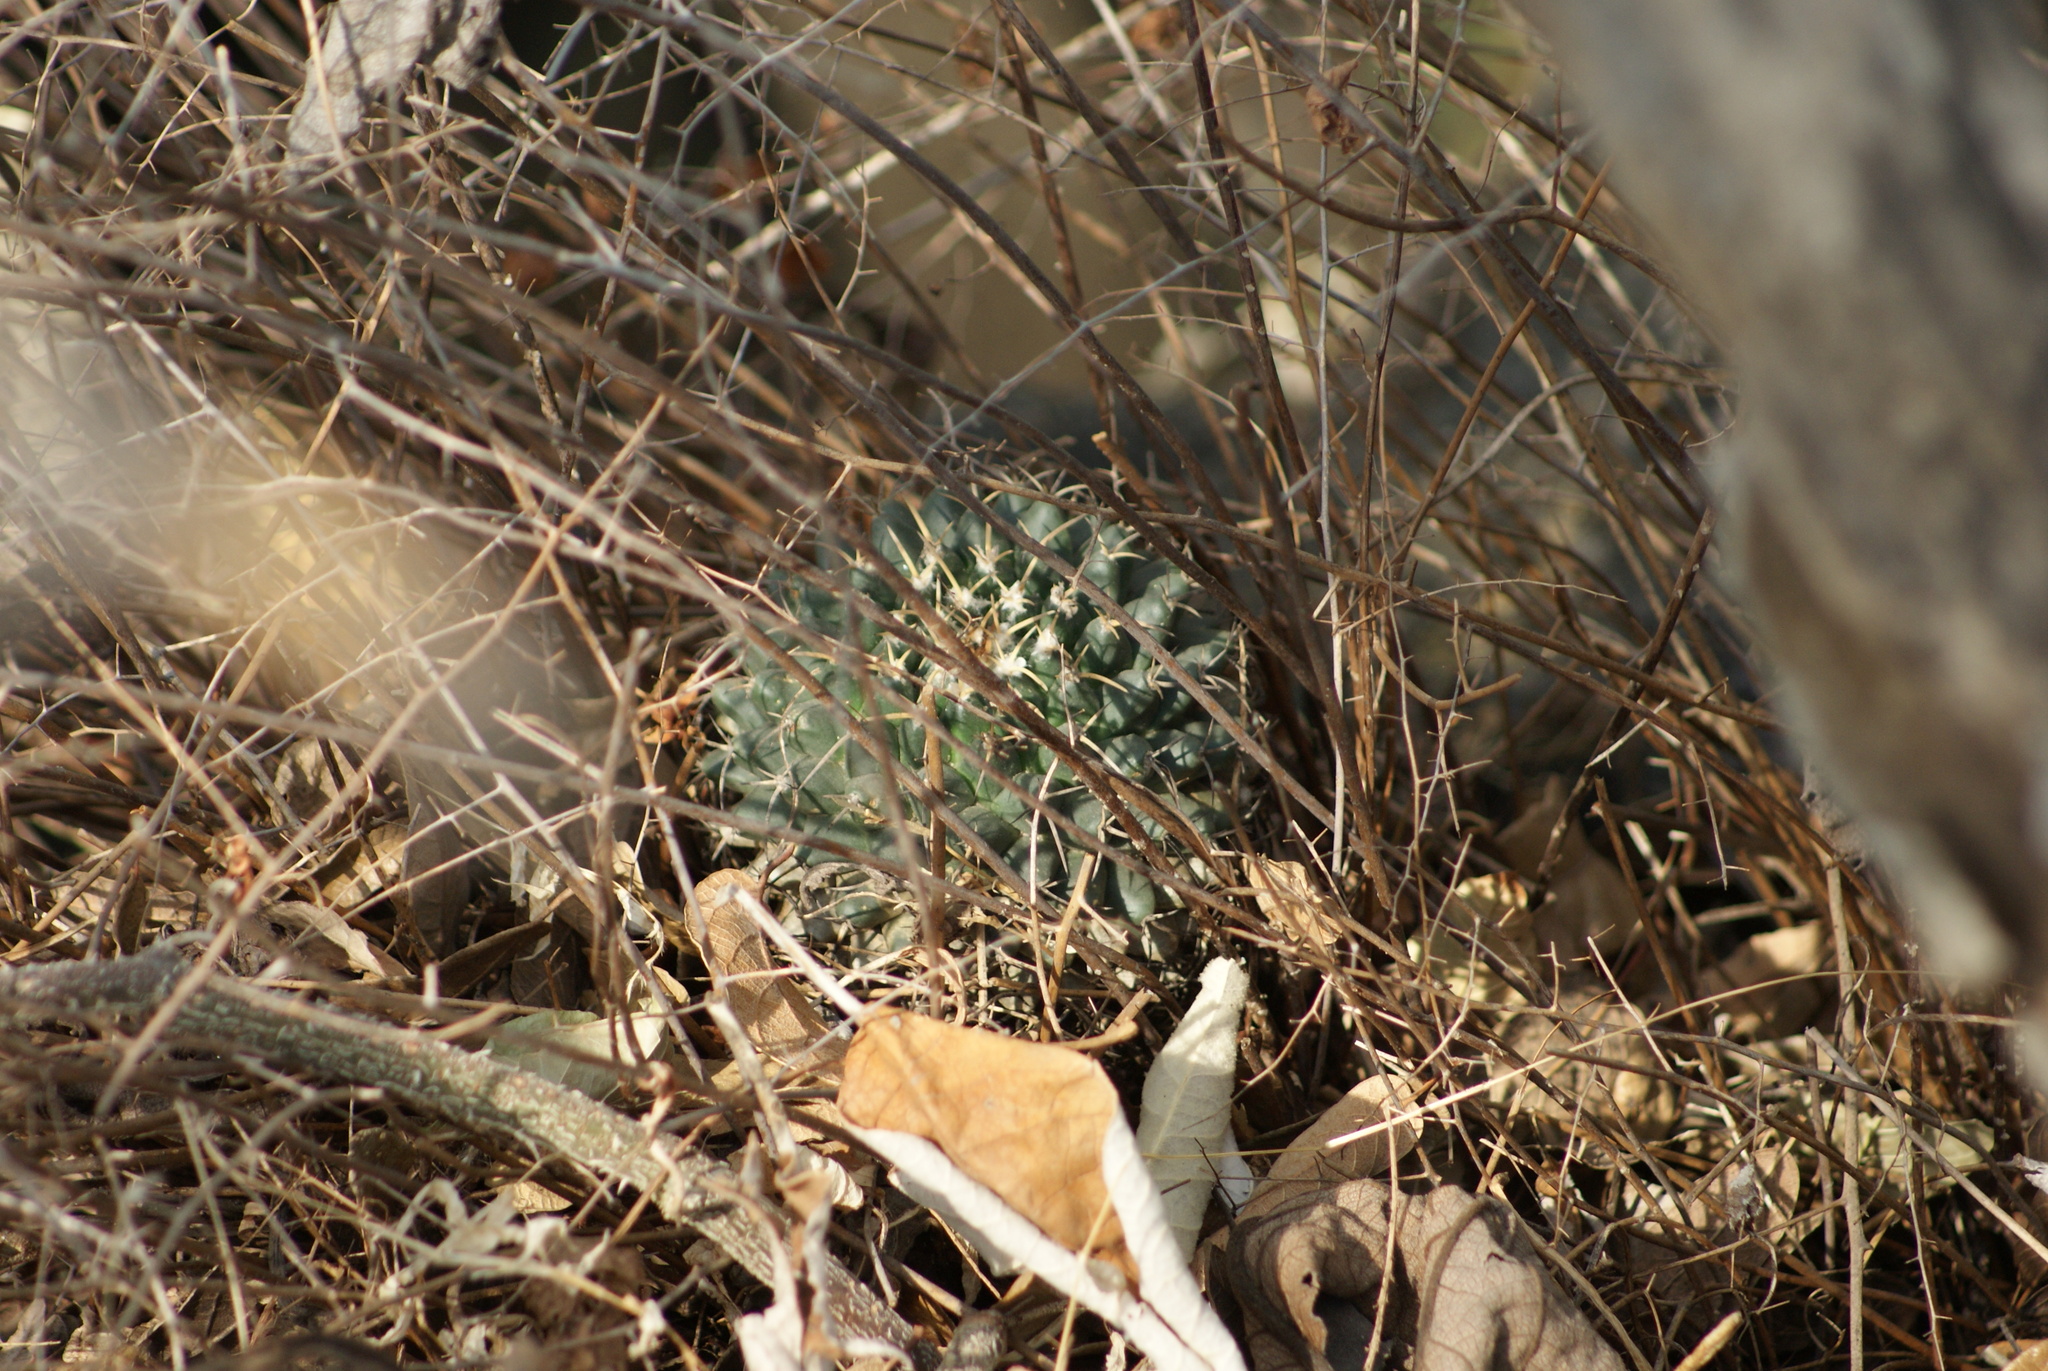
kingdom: Plantae
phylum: Tracheophyta
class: Magnoliopsida
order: Caryophyllales
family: Cactaceae
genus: Mammillaria
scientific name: Mammillaria magnimamma
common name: Mexican pincushion
